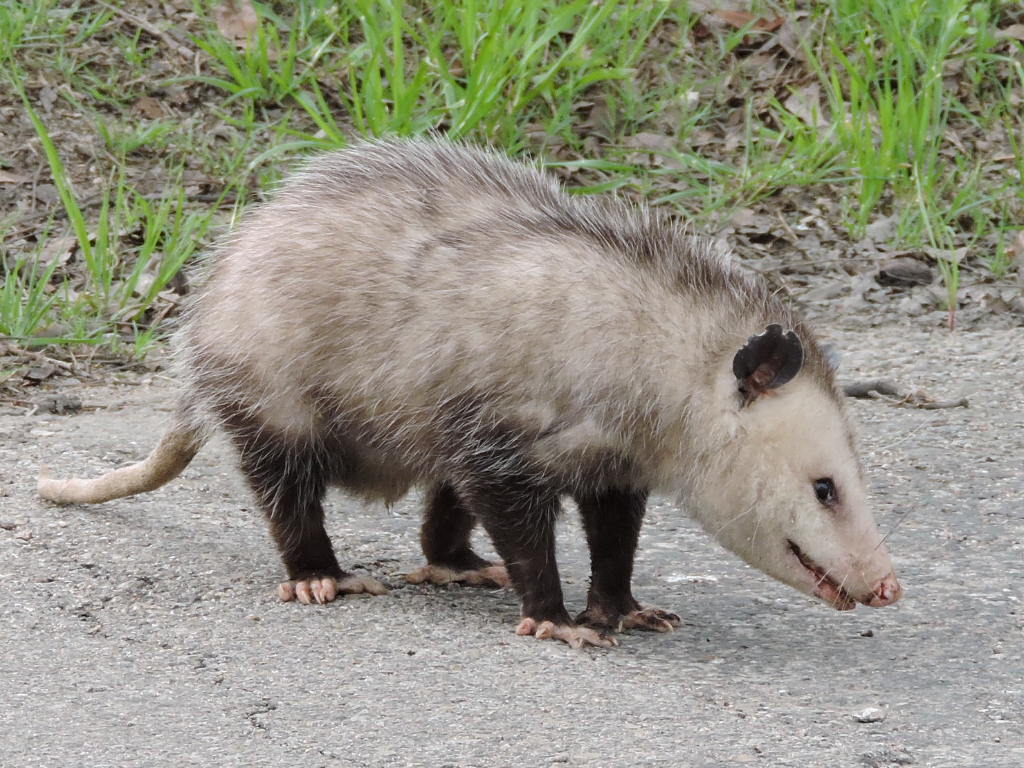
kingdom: Animalia
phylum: Chordata
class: Mammalia
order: Didelphimorphia
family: Didelphidae
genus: Didelphis
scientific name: Didelphis virginiana
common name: Virginia opossum
